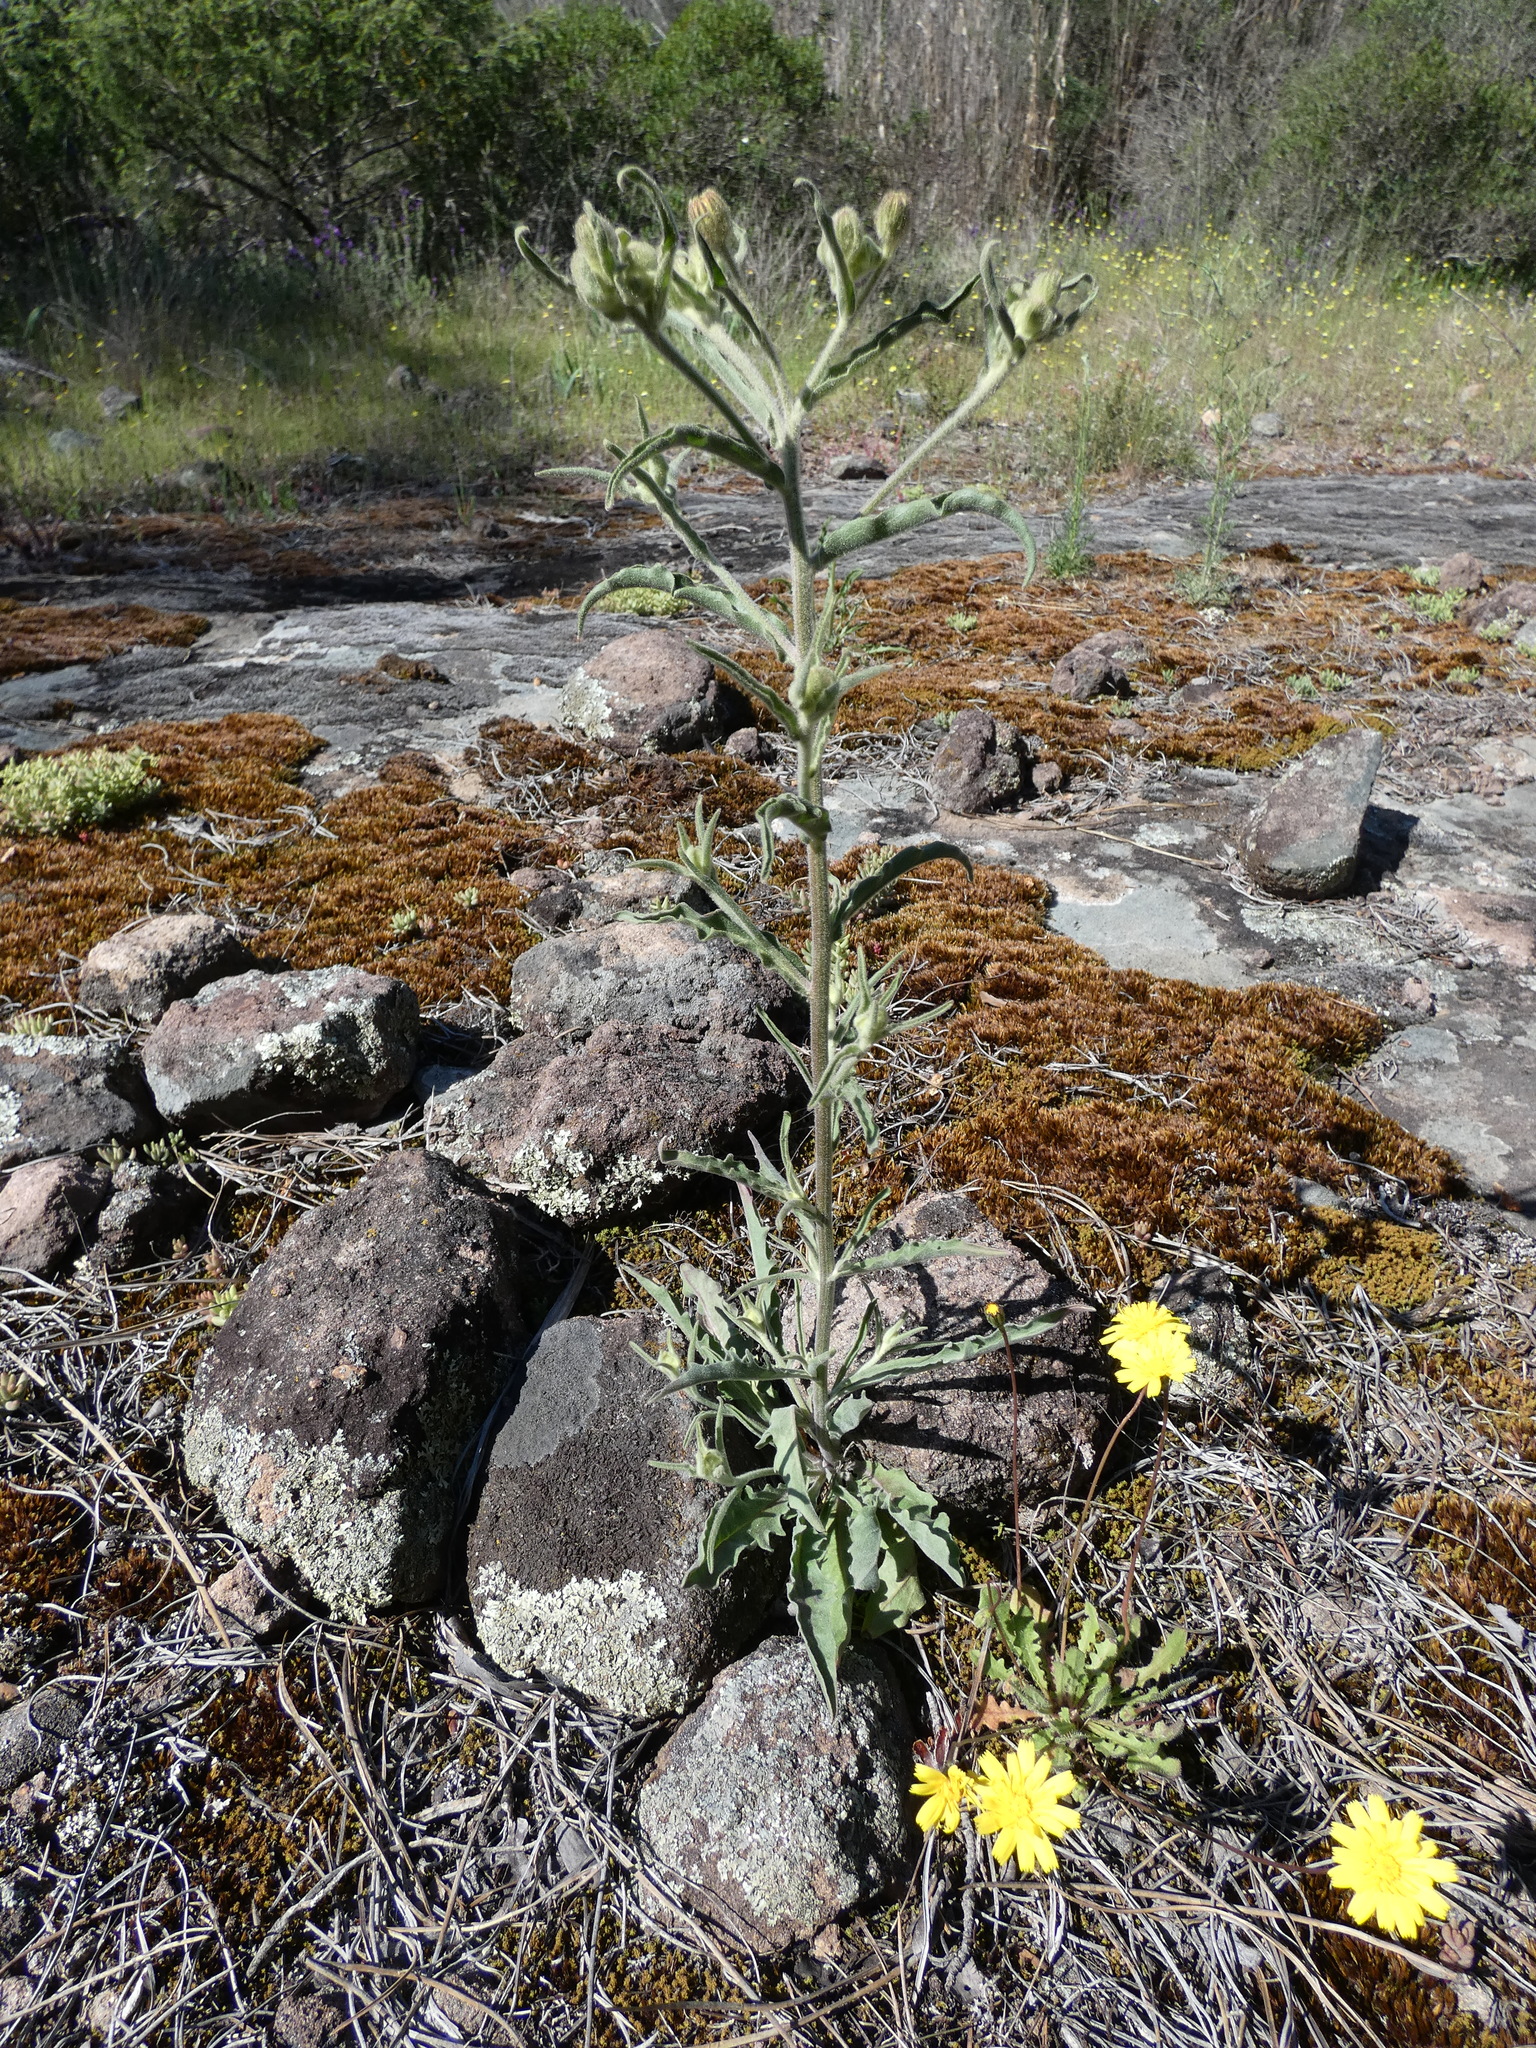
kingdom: Plantae
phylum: Tracheophyta
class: Magnoliopsida
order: Asterales
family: Asteraceae
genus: Andryala
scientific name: Andryala integrifolia
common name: Common andryala
